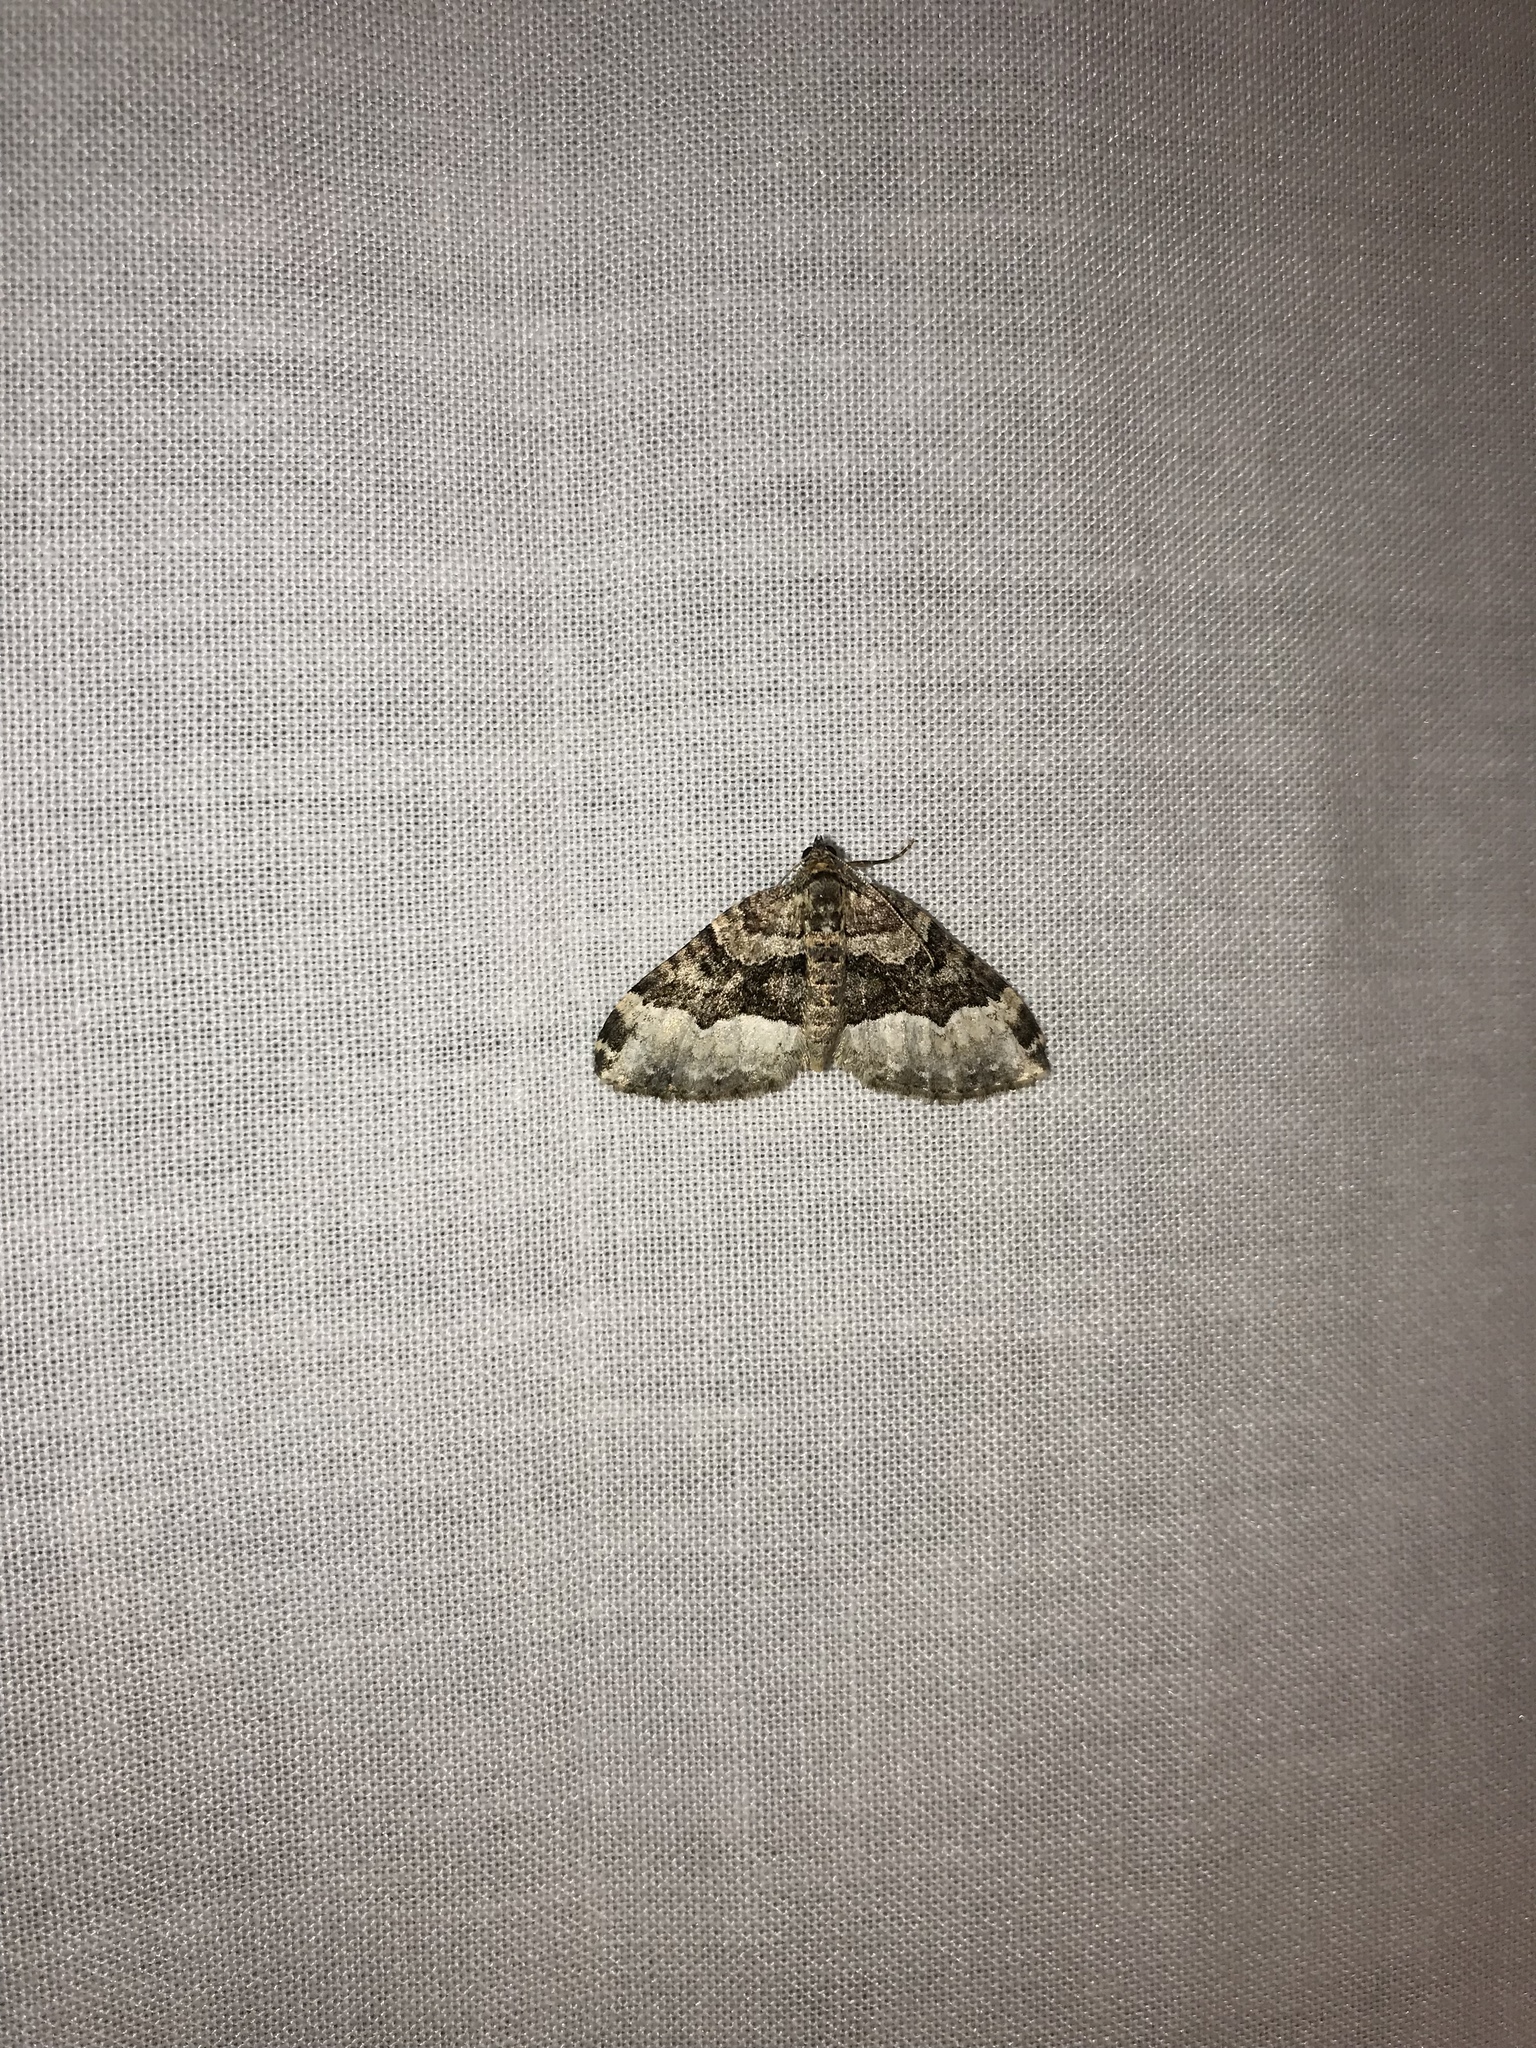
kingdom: Animalia
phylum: Arthropoda
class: Insecta
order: Lepidoptera
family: Geometridae
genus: Euphyia
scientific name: Euphyia intermediata
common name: Sharp-angled carpet
